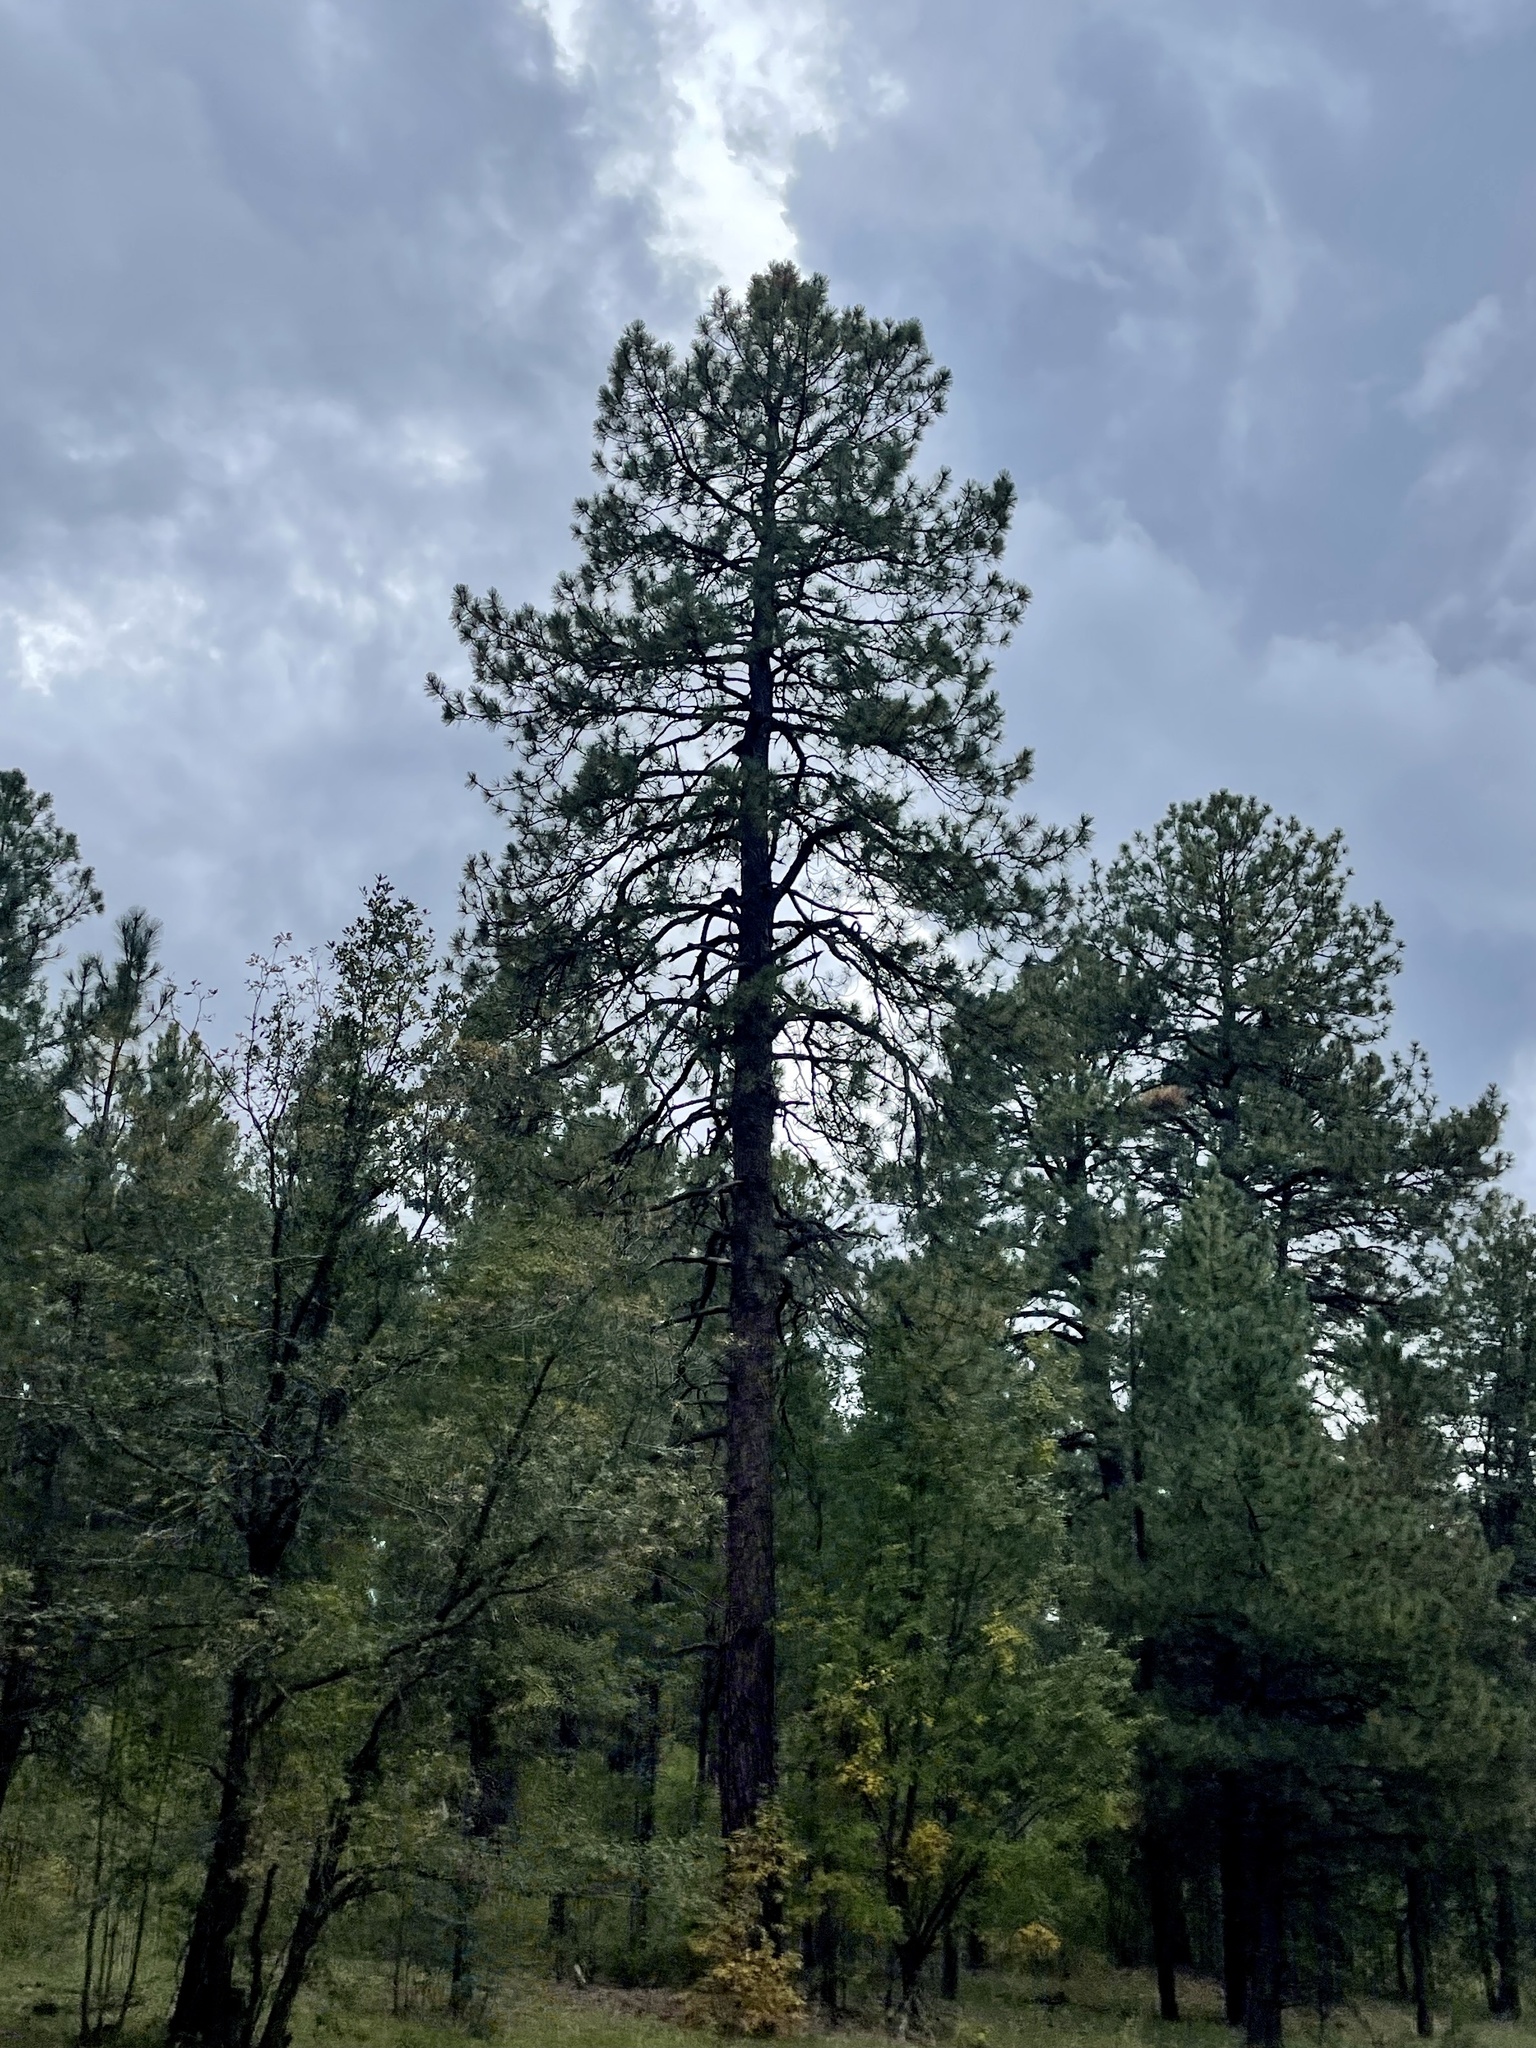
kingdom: Plantae
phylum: Tracheophyta
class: Pinopsida
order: Pinales
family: Pinaceae
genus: Pinus
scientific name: Pinus ponderosa
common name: Western yellow-pine
